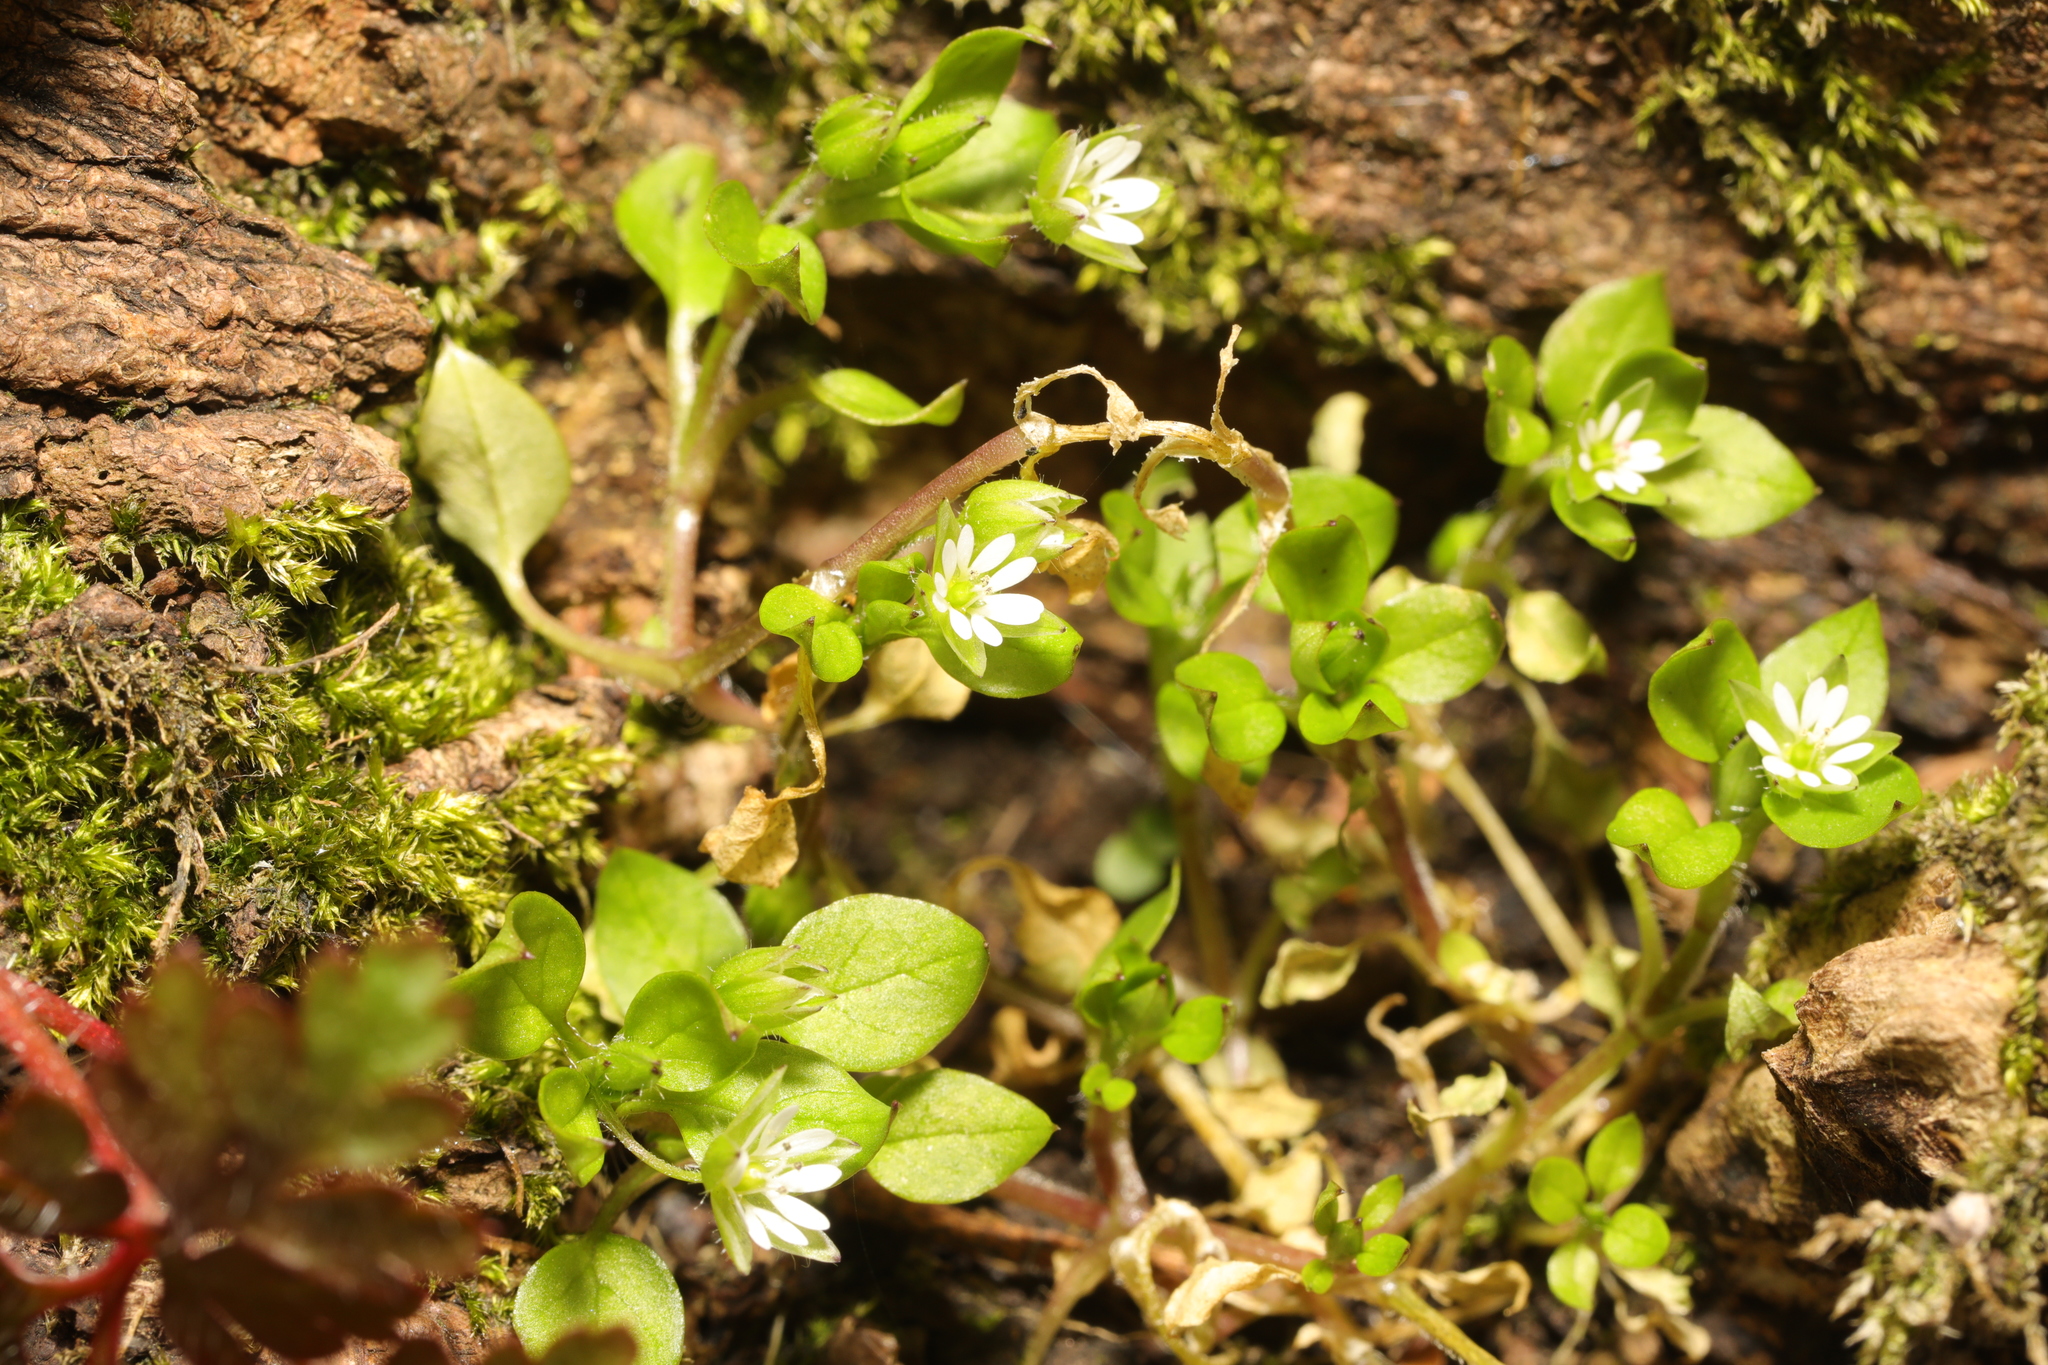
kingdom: Plantae
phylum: Tracheophyta
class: Magnoliopsida
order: Caryophyllales
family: Caryophyllaceae
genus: Stellaria
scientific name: Stellaria media
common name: Common chickweed
